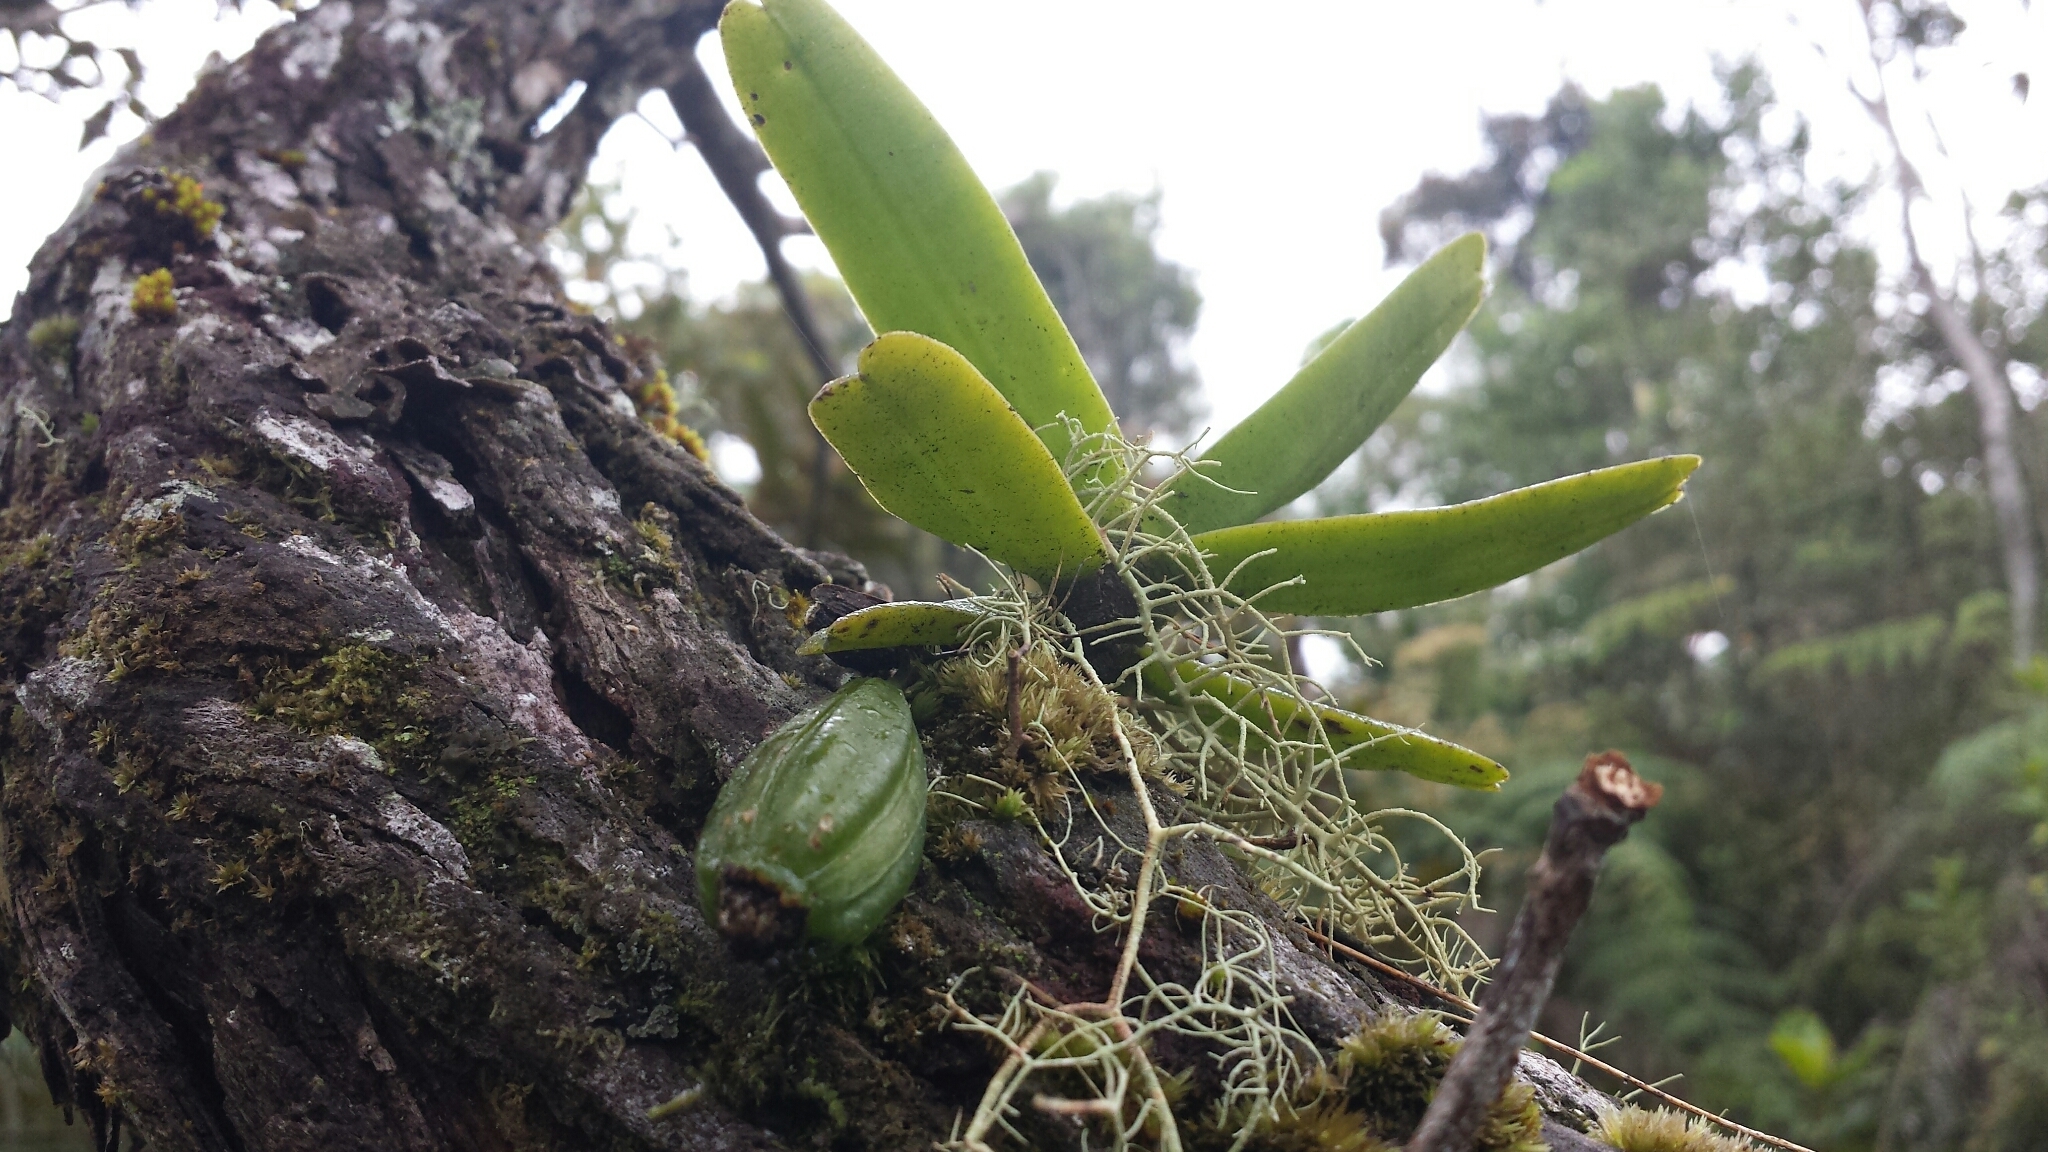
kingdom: Plantae
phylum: Tracheophyta
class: Liliopsida
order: Asparagales
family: Orchidaceae
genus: Angraecum
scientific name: Angraecum compactum
